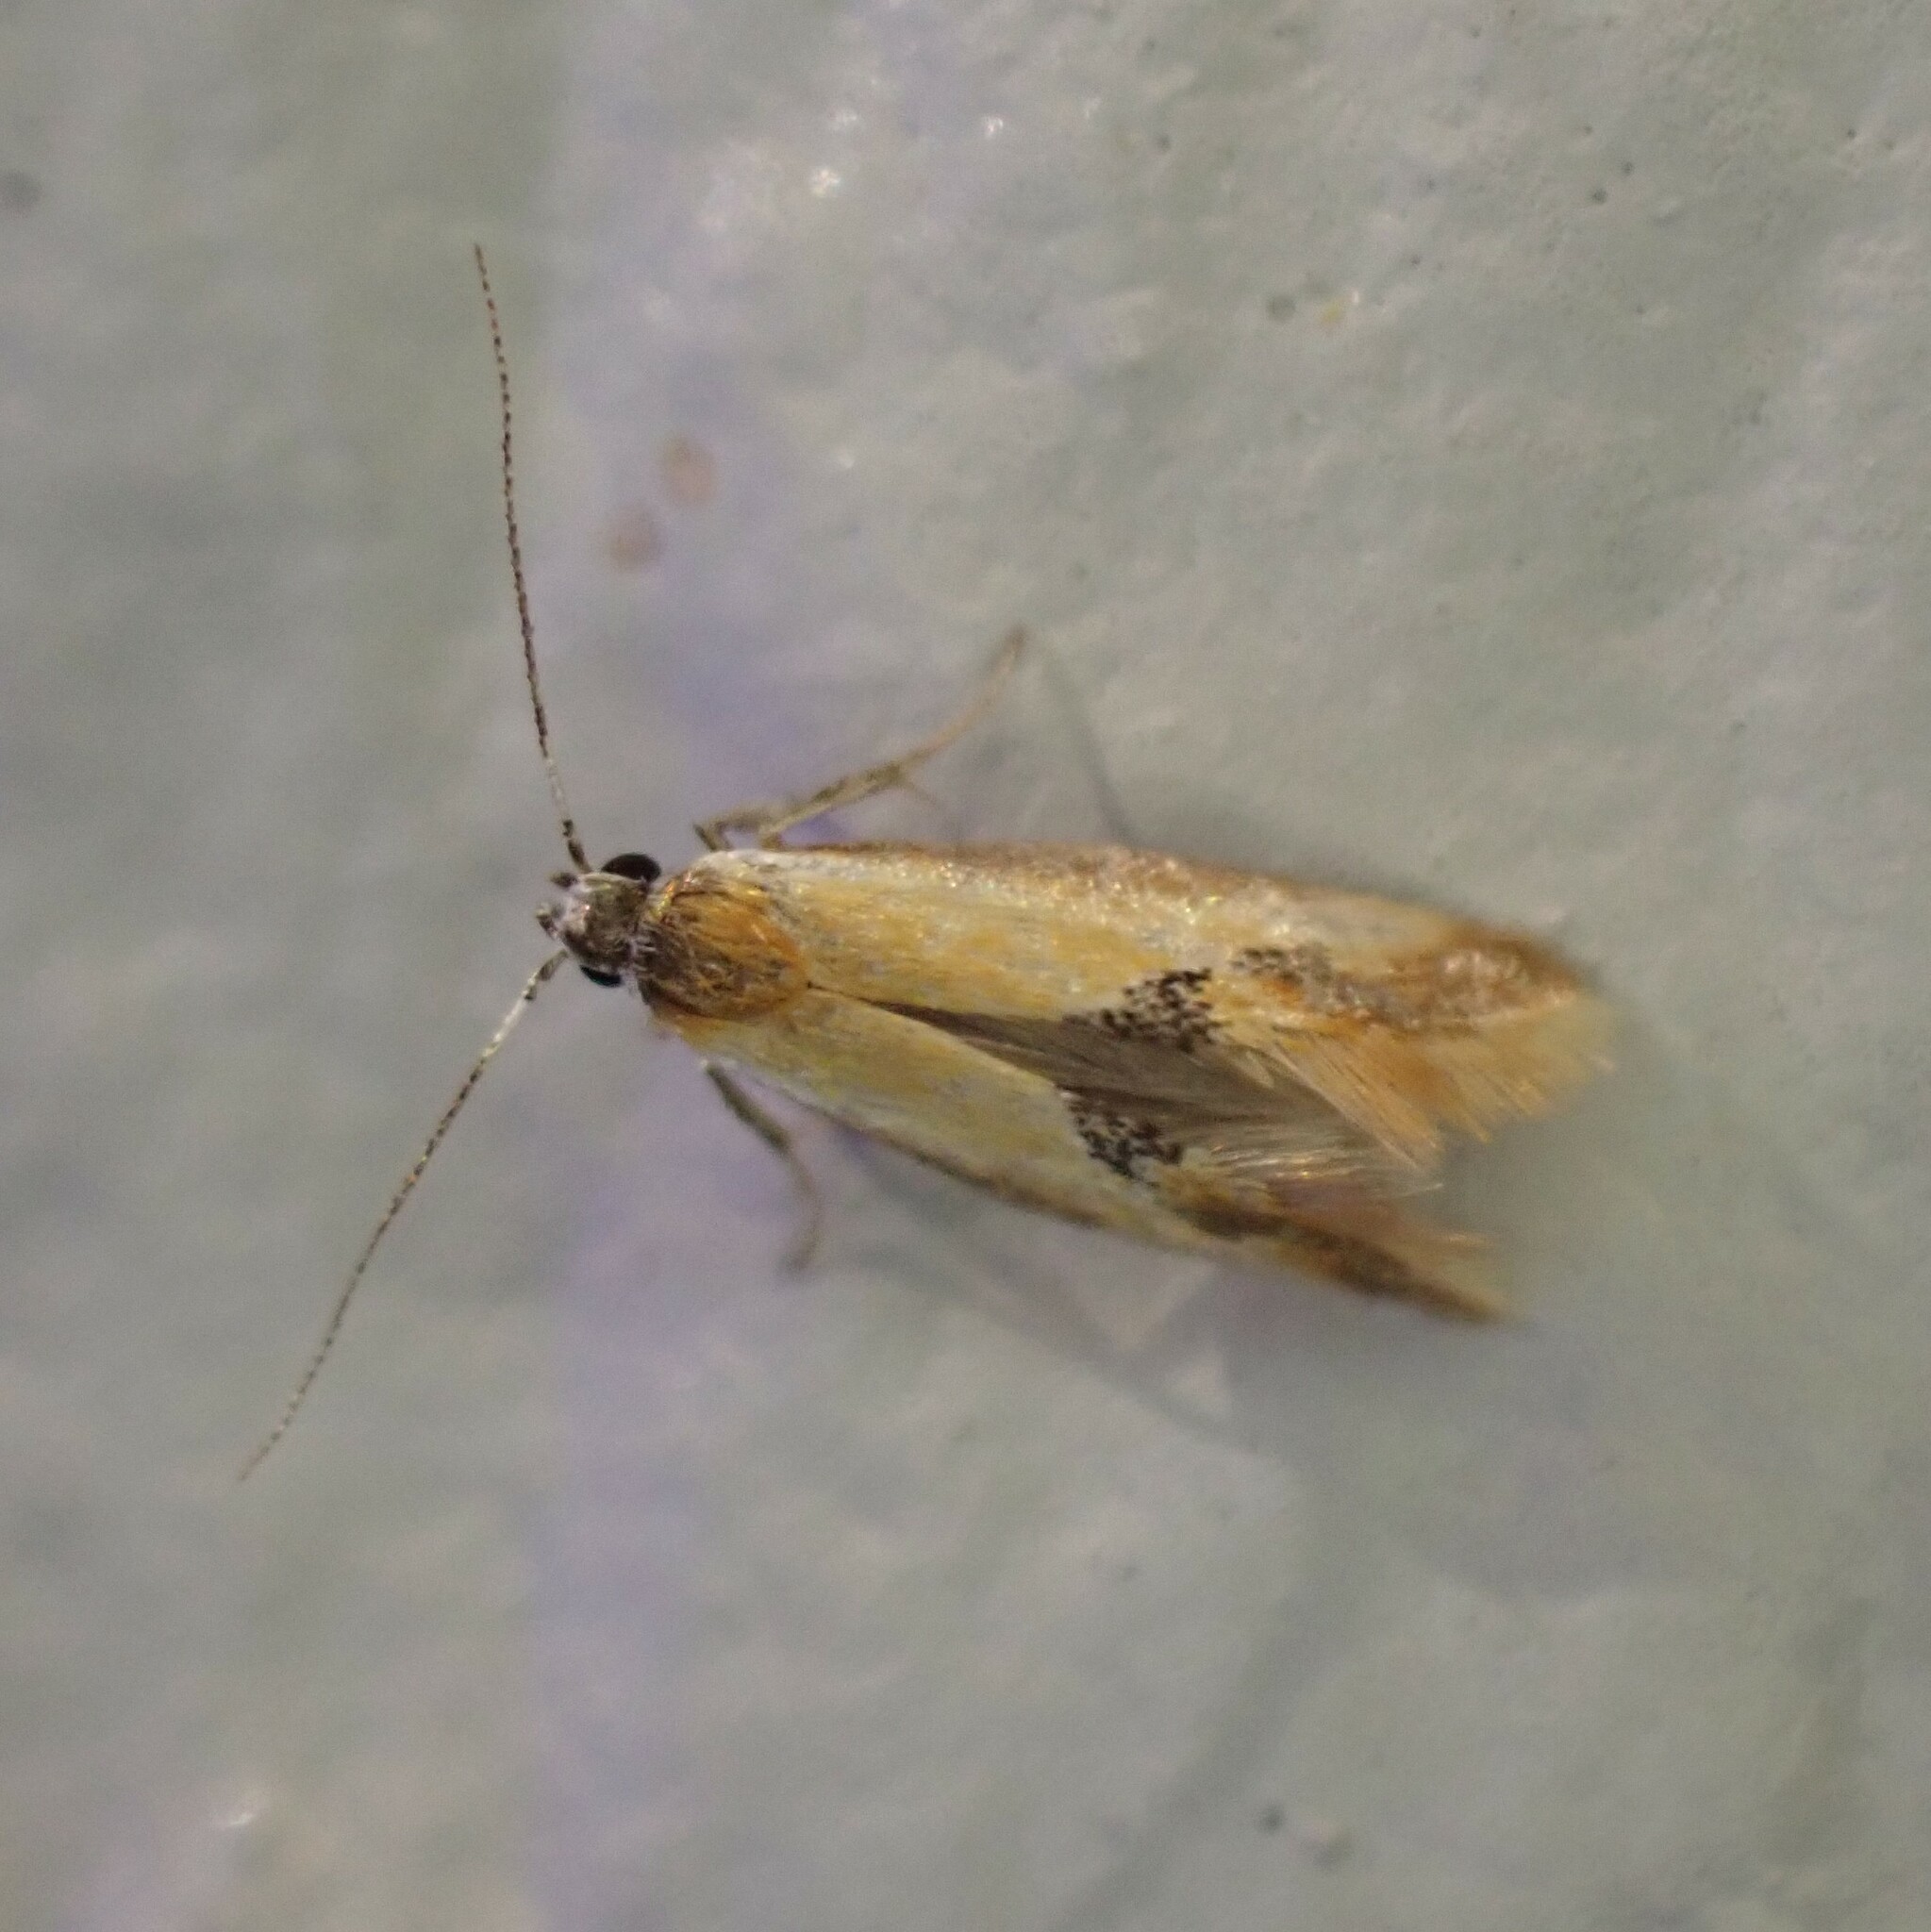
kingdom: Animalia
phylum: Arthropoda
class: Insecta
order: Lepidoptera
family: Oecophoridae
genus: Batia
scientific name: Batia lunaris
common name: Moth
